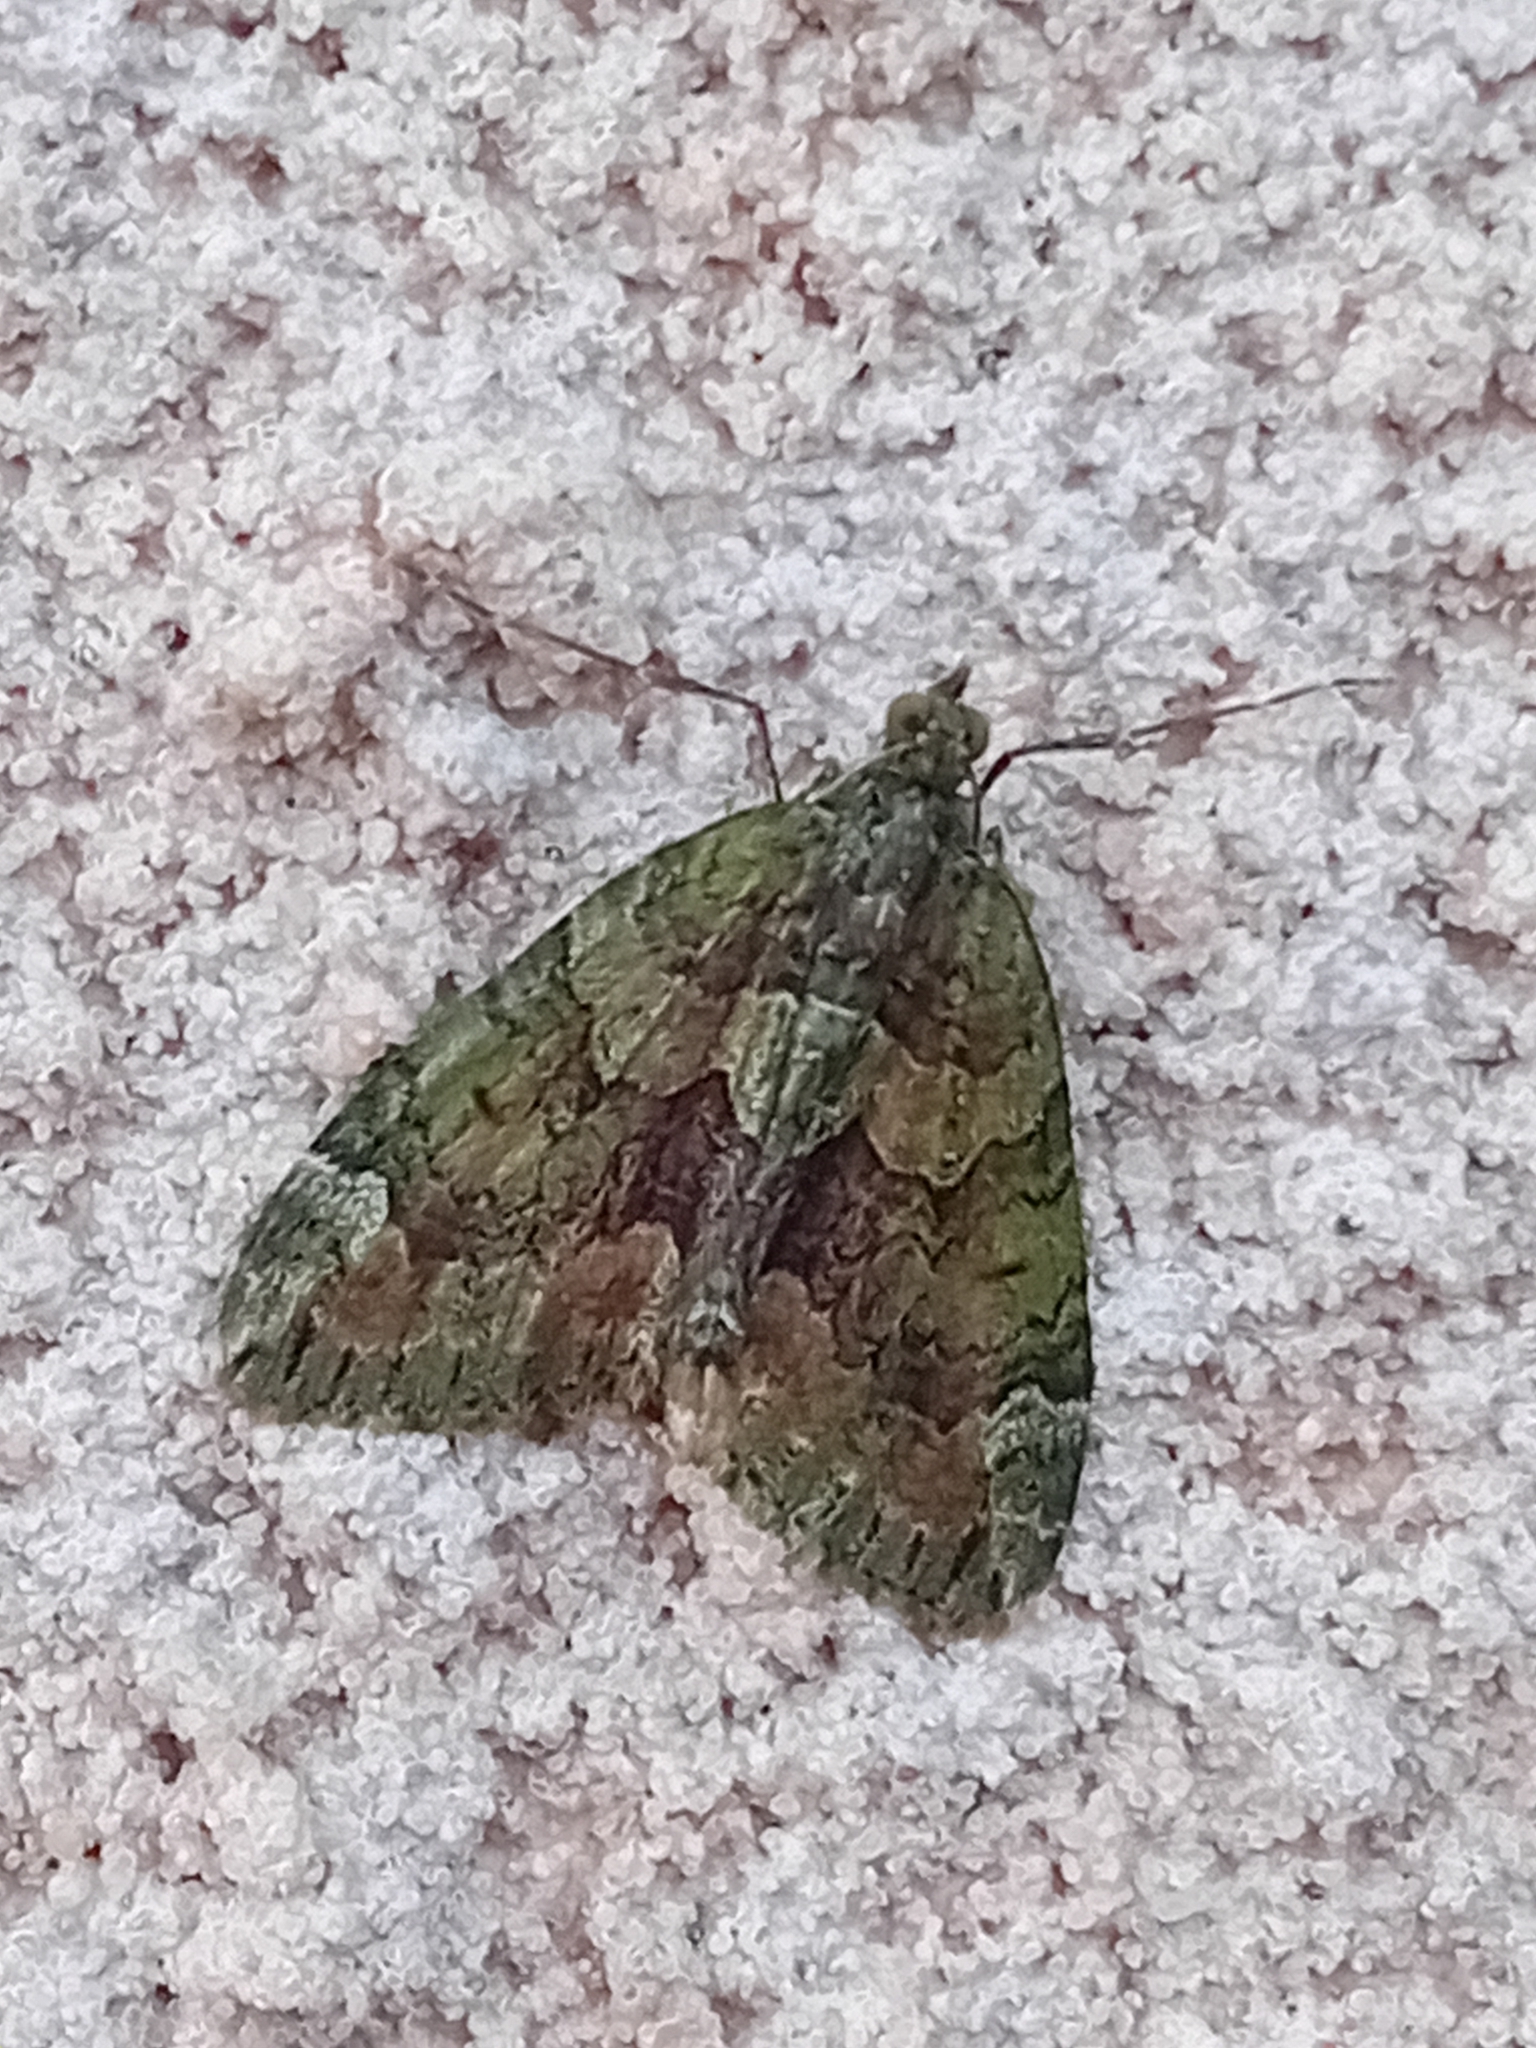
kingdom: Animalia
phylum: Arthropoda
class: Insecta
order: Lepidoptera
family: Geometridae
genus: Chloroclysta
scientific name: Chloroclysta siterata
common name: Red-green carpet
